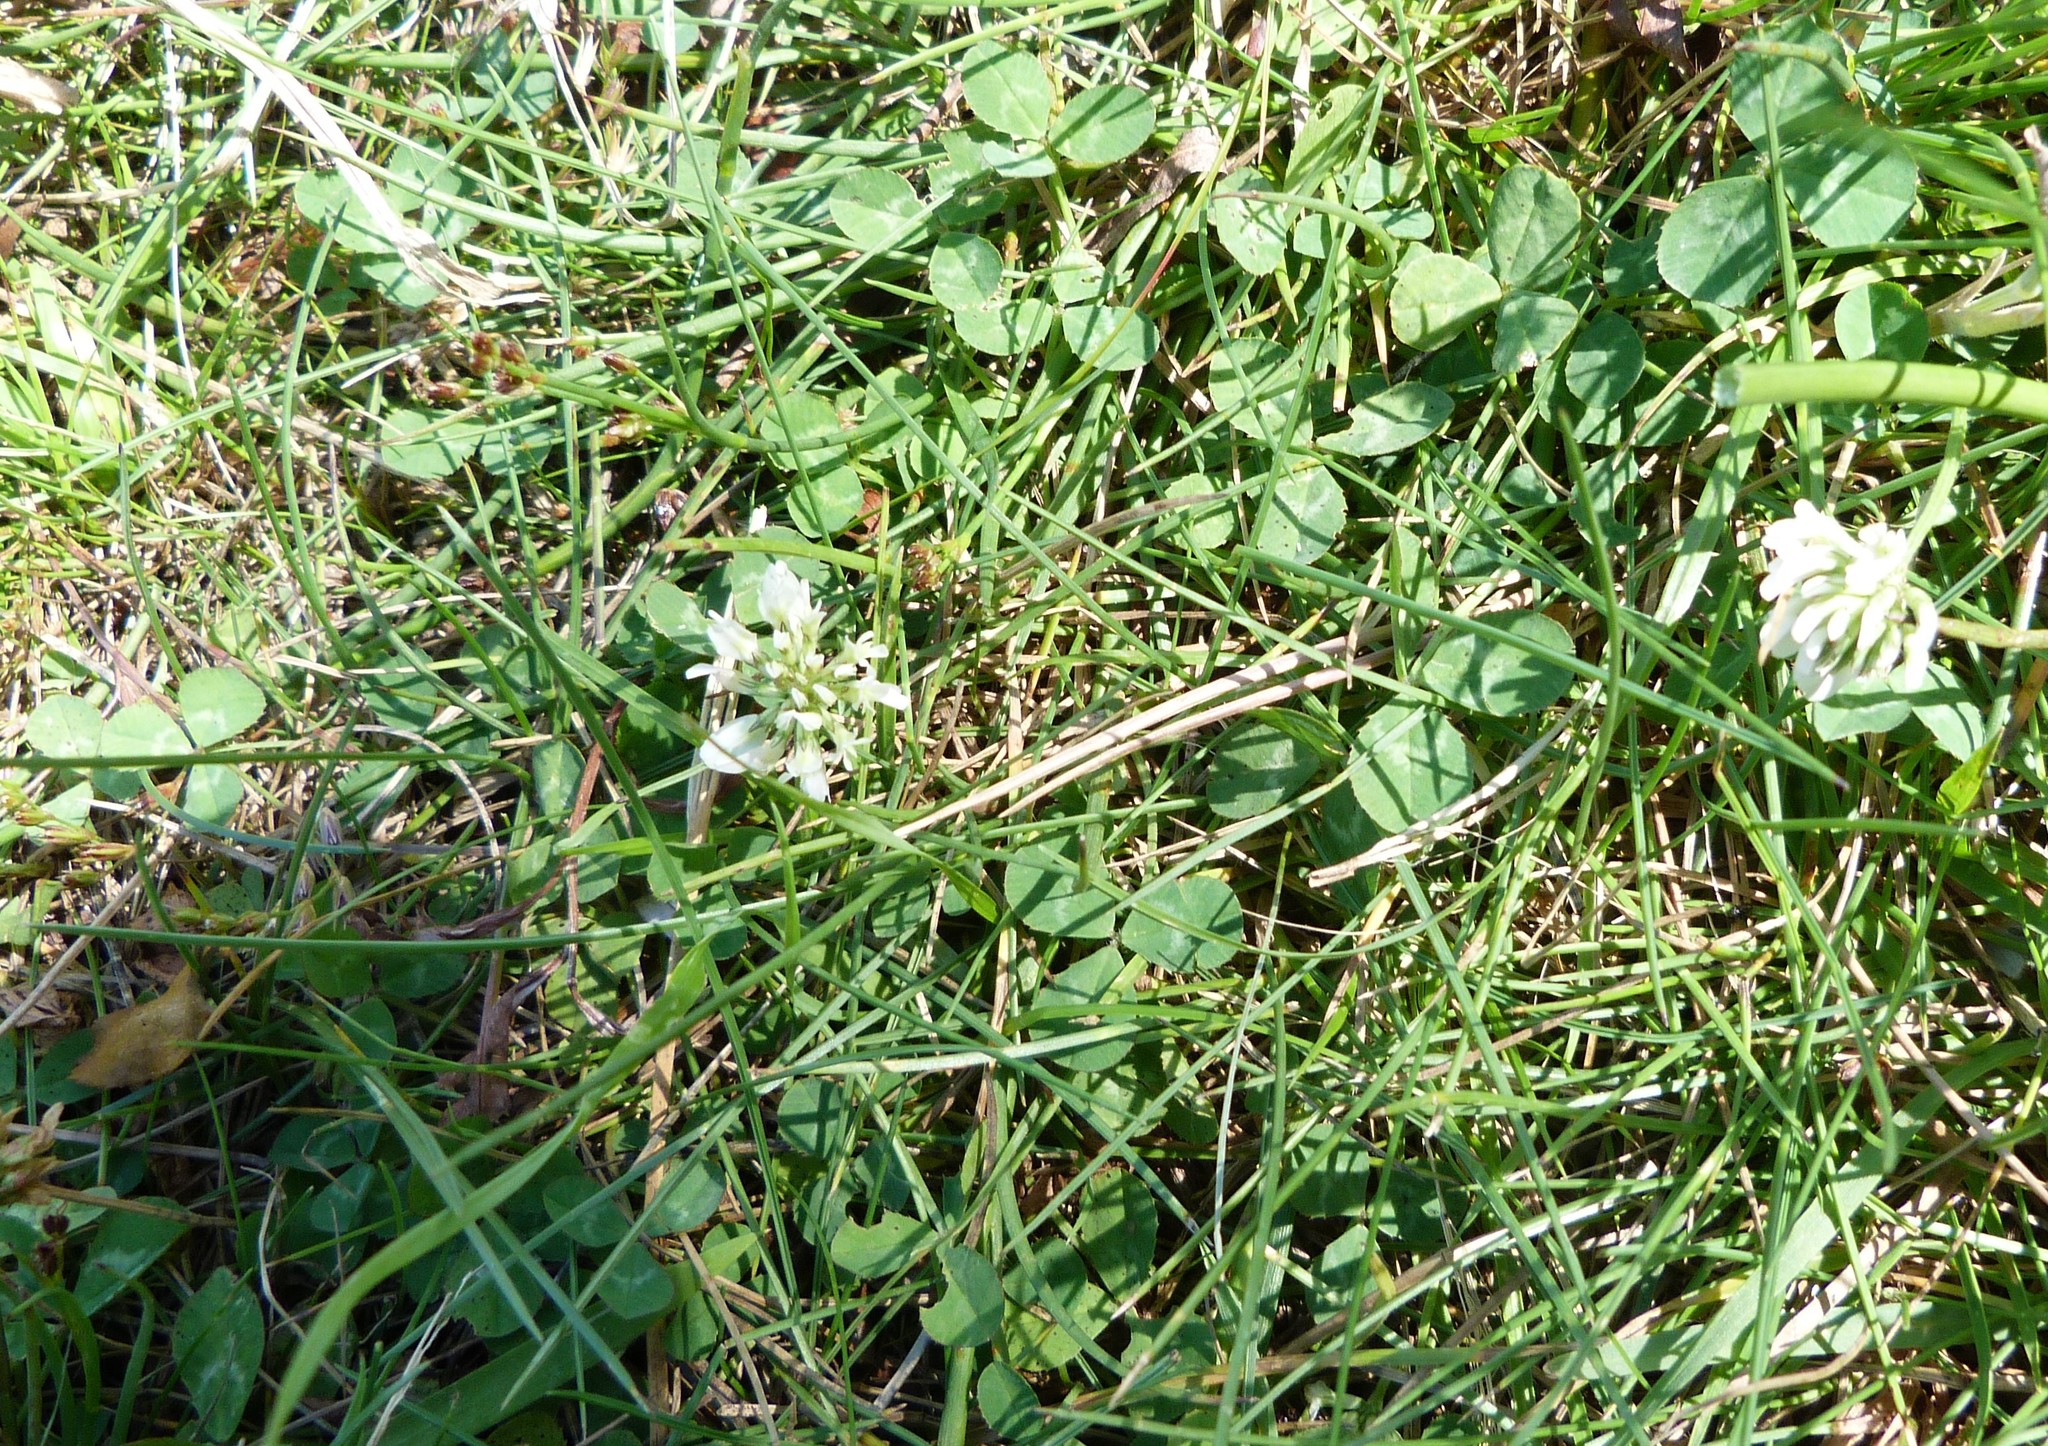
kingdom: Plantae
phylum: Tracheophyta
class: Magnoliopsida
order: Fabales
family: Fabaceae
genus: Trifolium
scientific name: Trifolium repens
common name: White clover
